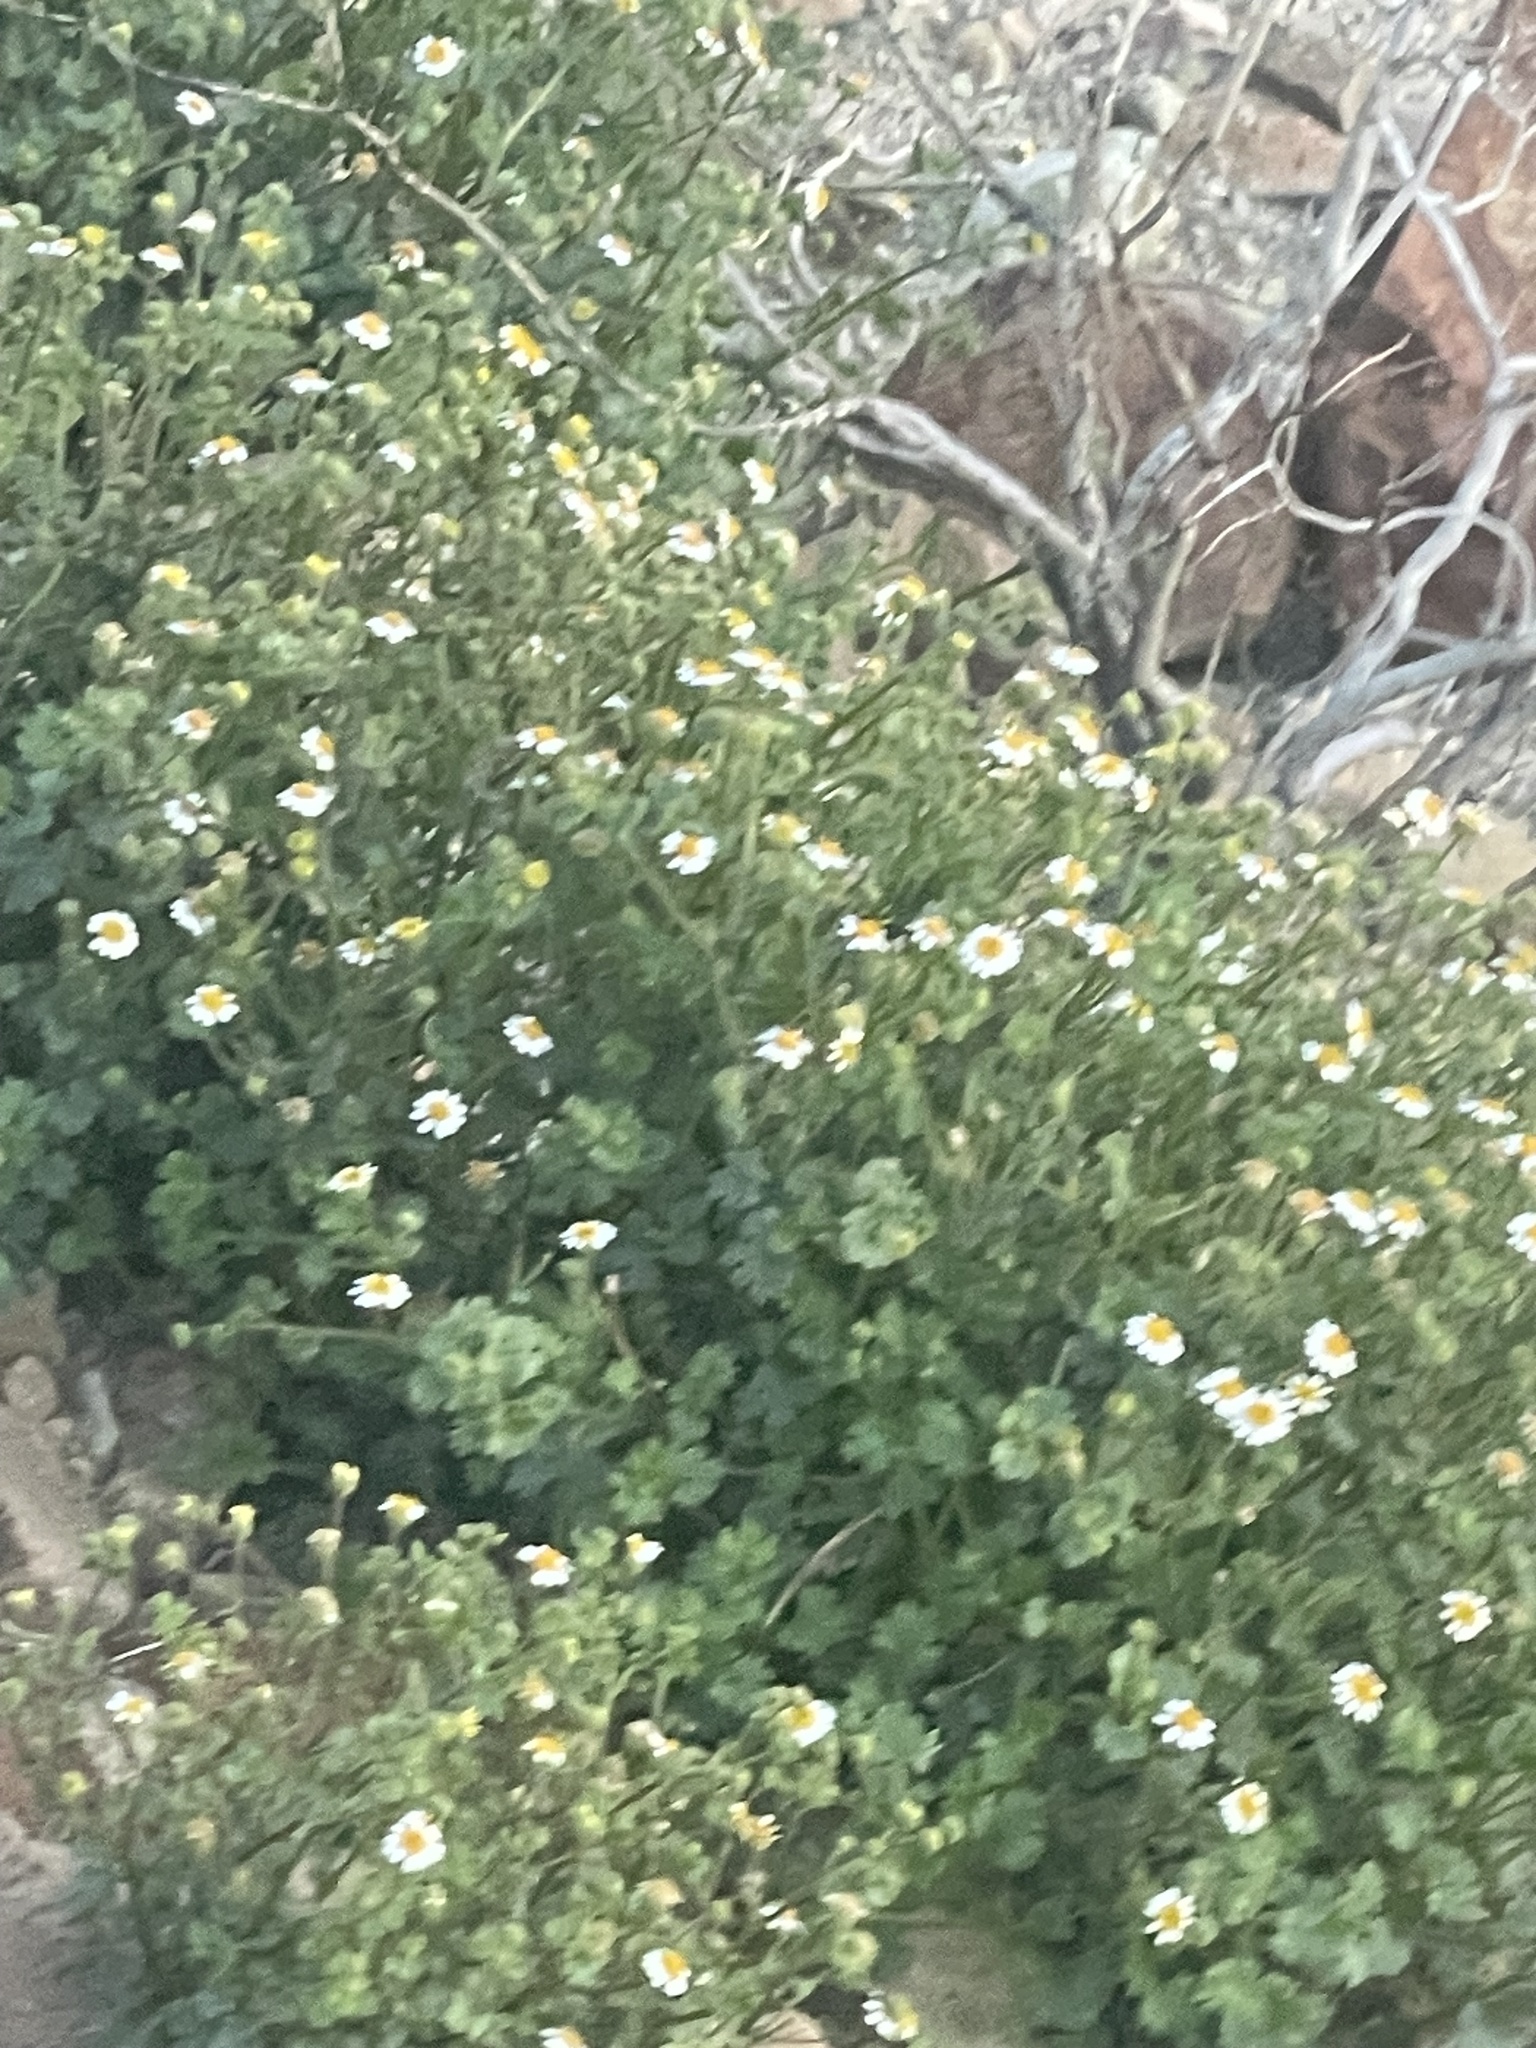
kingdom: Plantae
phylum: Tracheophyta
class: Magnoliopsida
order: Asterales
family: Asteraceae
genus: Laphamia
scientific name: Laphamia emoryi
